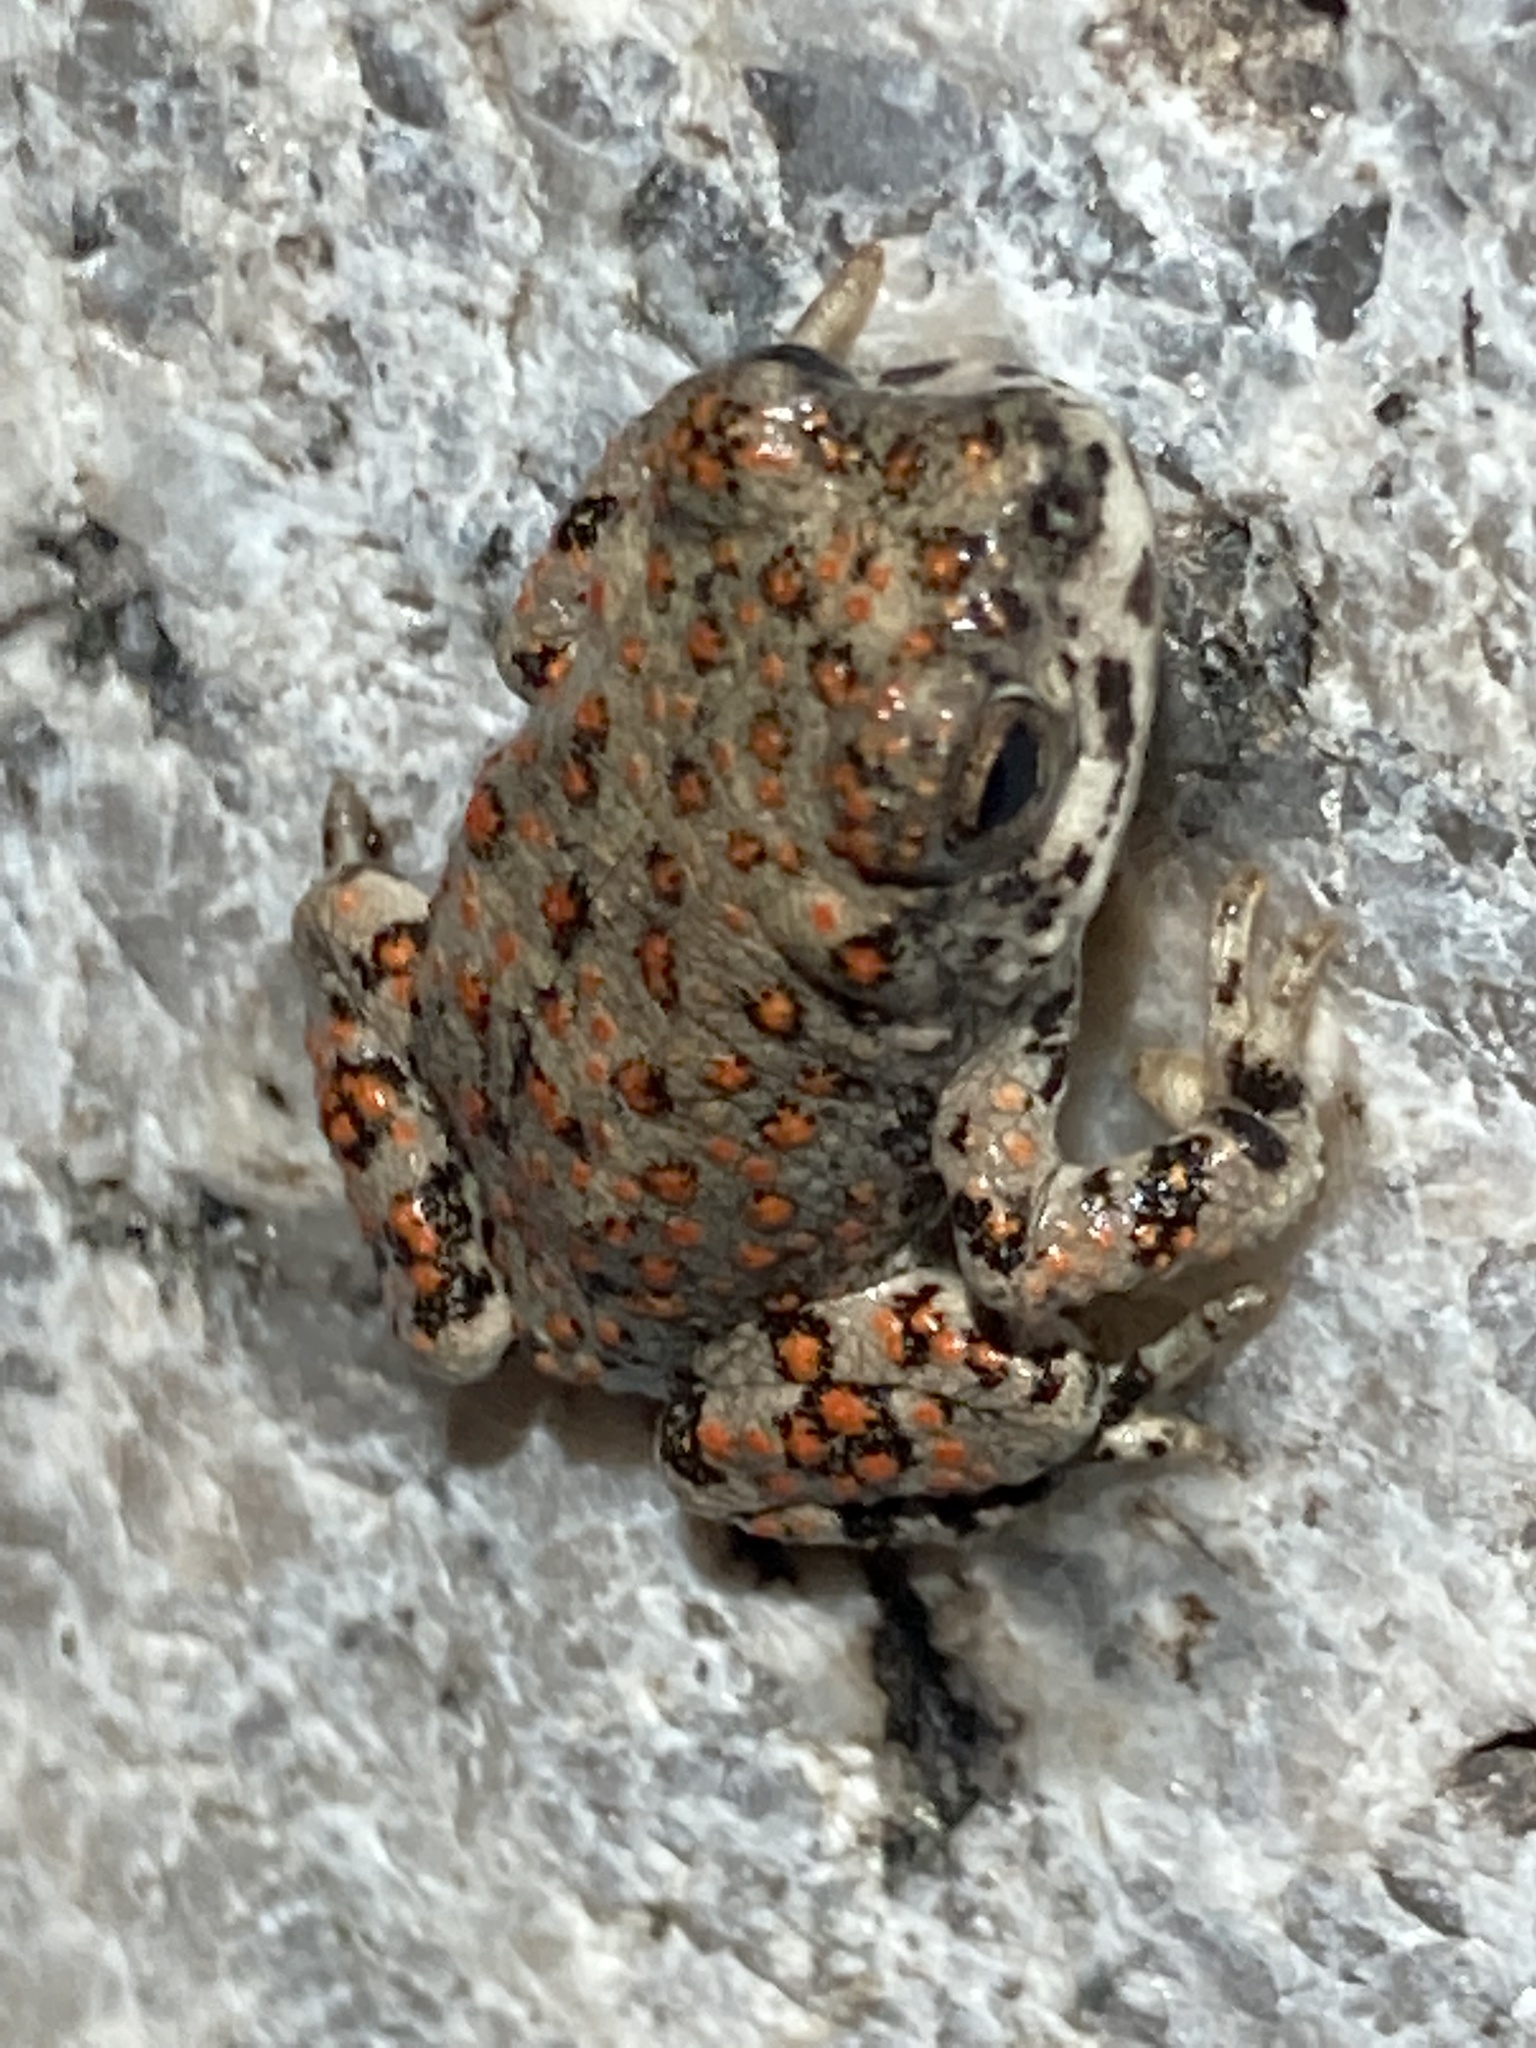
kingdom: Animalia
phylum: Chordata
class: Amphibia
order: Anura
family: Bufonidae
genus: Anaxyrus
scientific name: Anaxyrus punctatus
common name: Red-spotted toad
